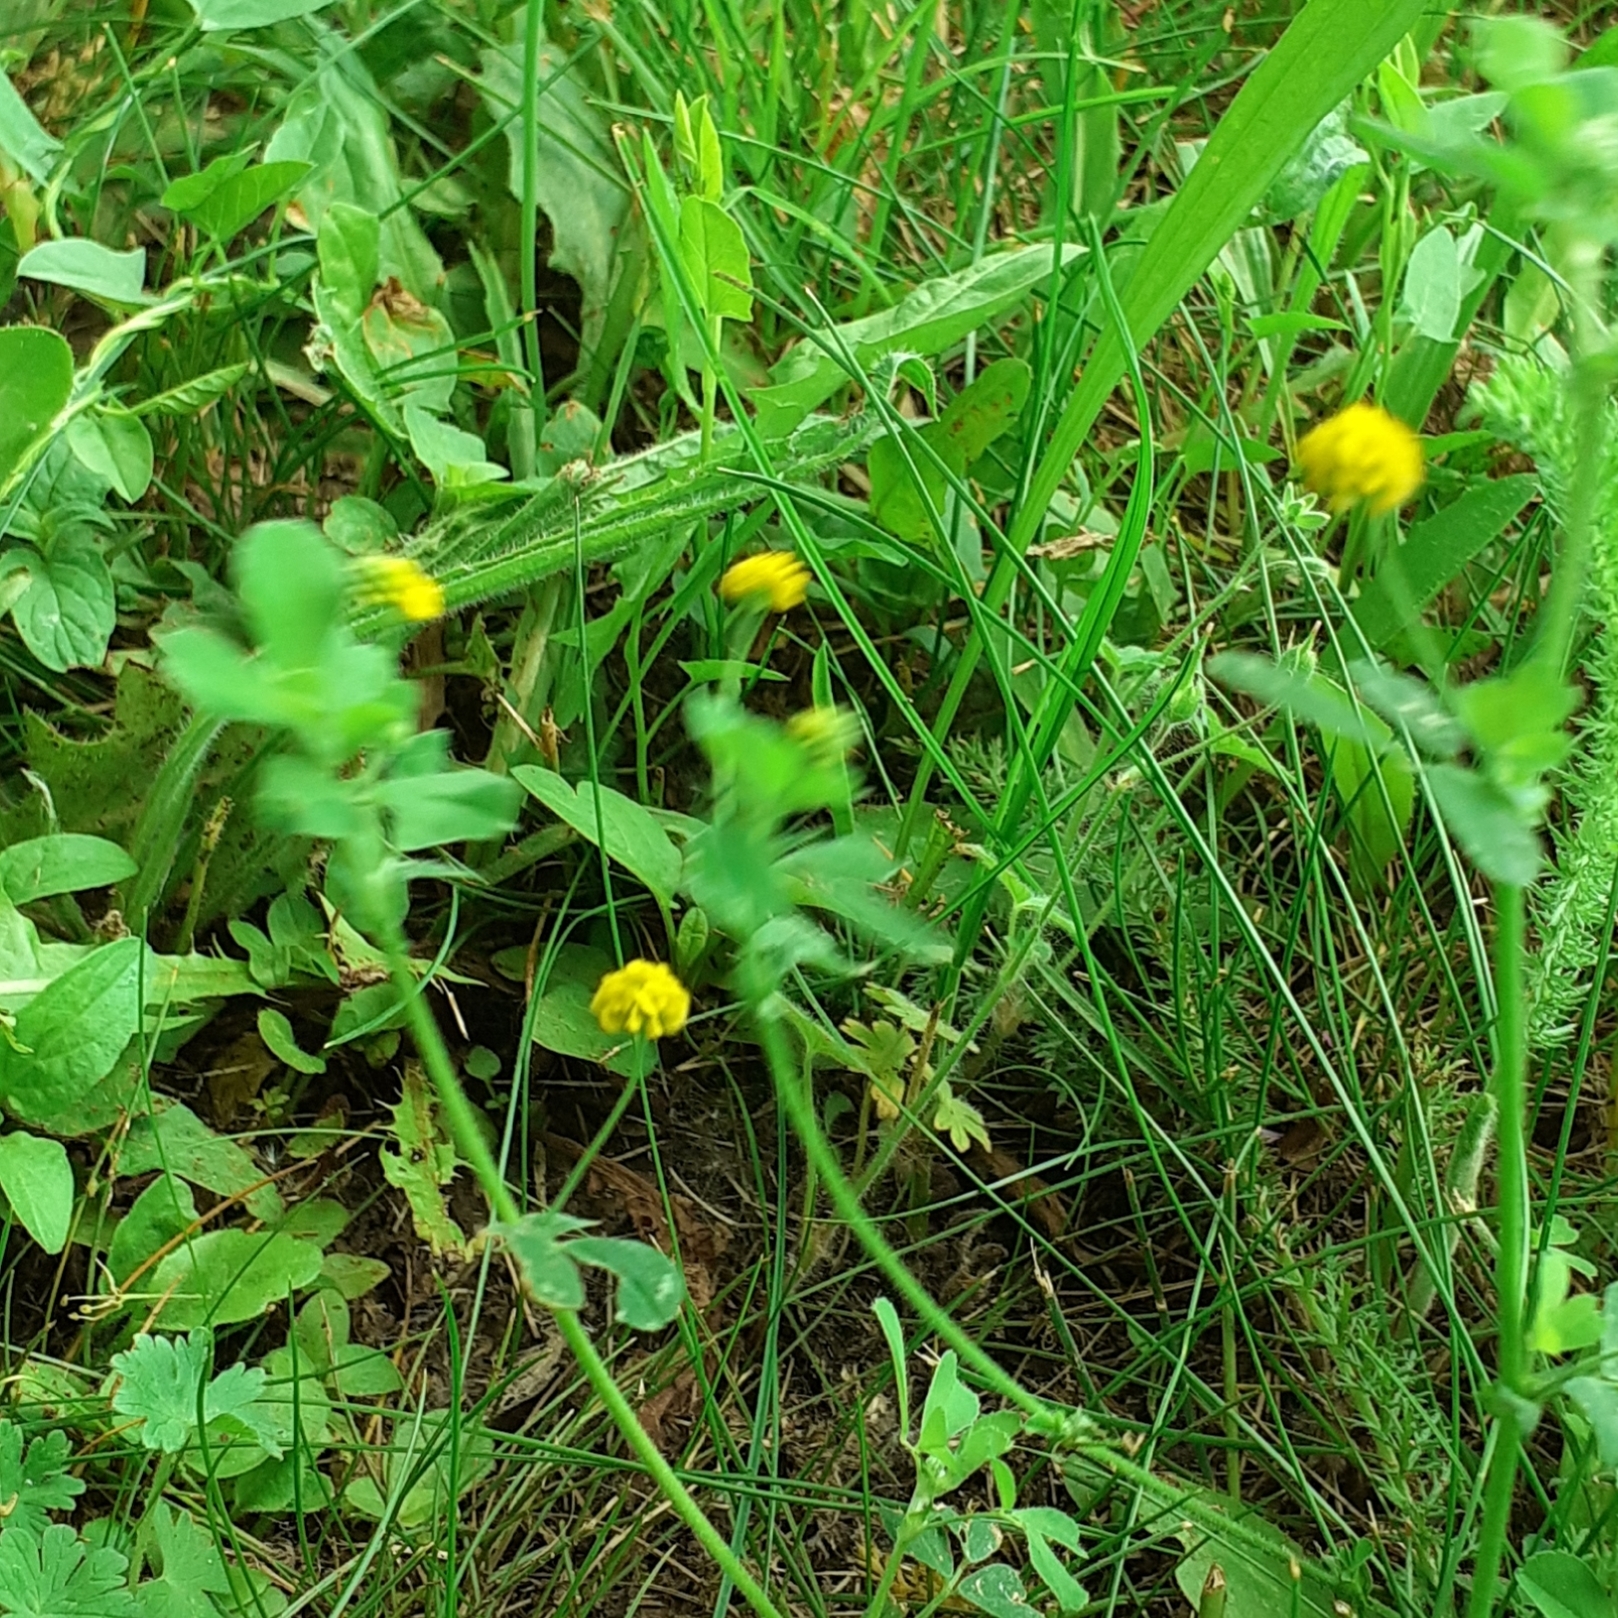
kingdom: Plantae
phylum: Tracheophyta
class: Magnoliopsida
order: Fabales
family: Fabaceae
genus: Medicago
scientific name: Medicago lupulina
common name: Black medick
